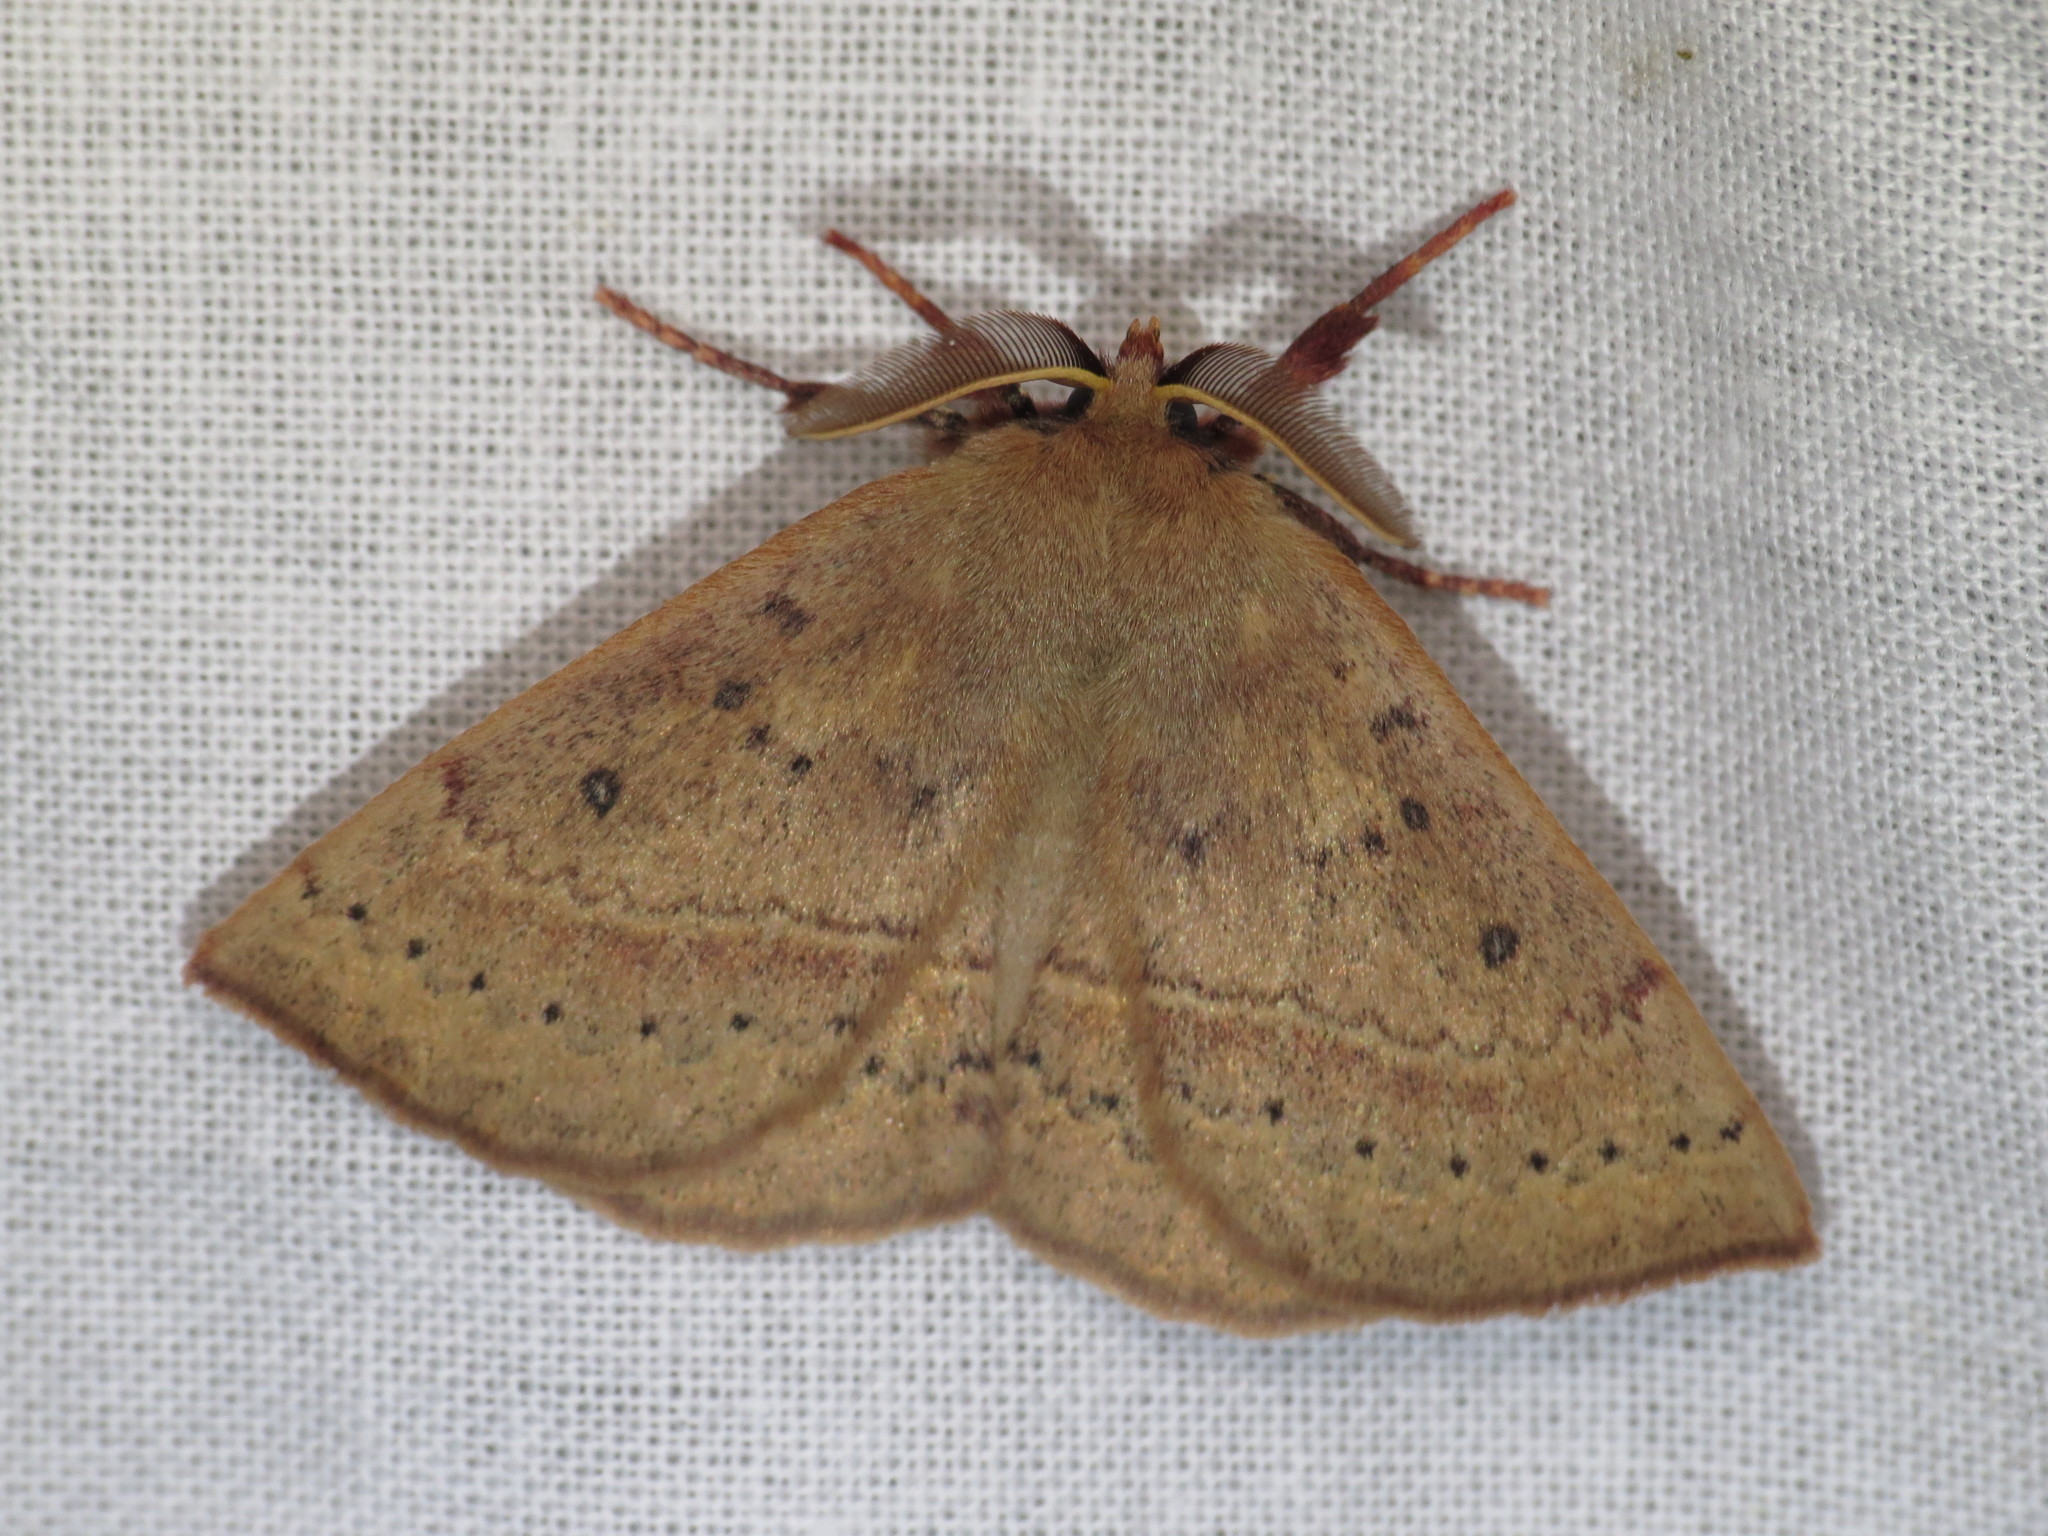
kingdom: Animalia
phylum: Arthropoda
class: Insecta
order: Lepidoptera
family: Anthelidae
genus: Anthela
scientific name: Anthela repleta
